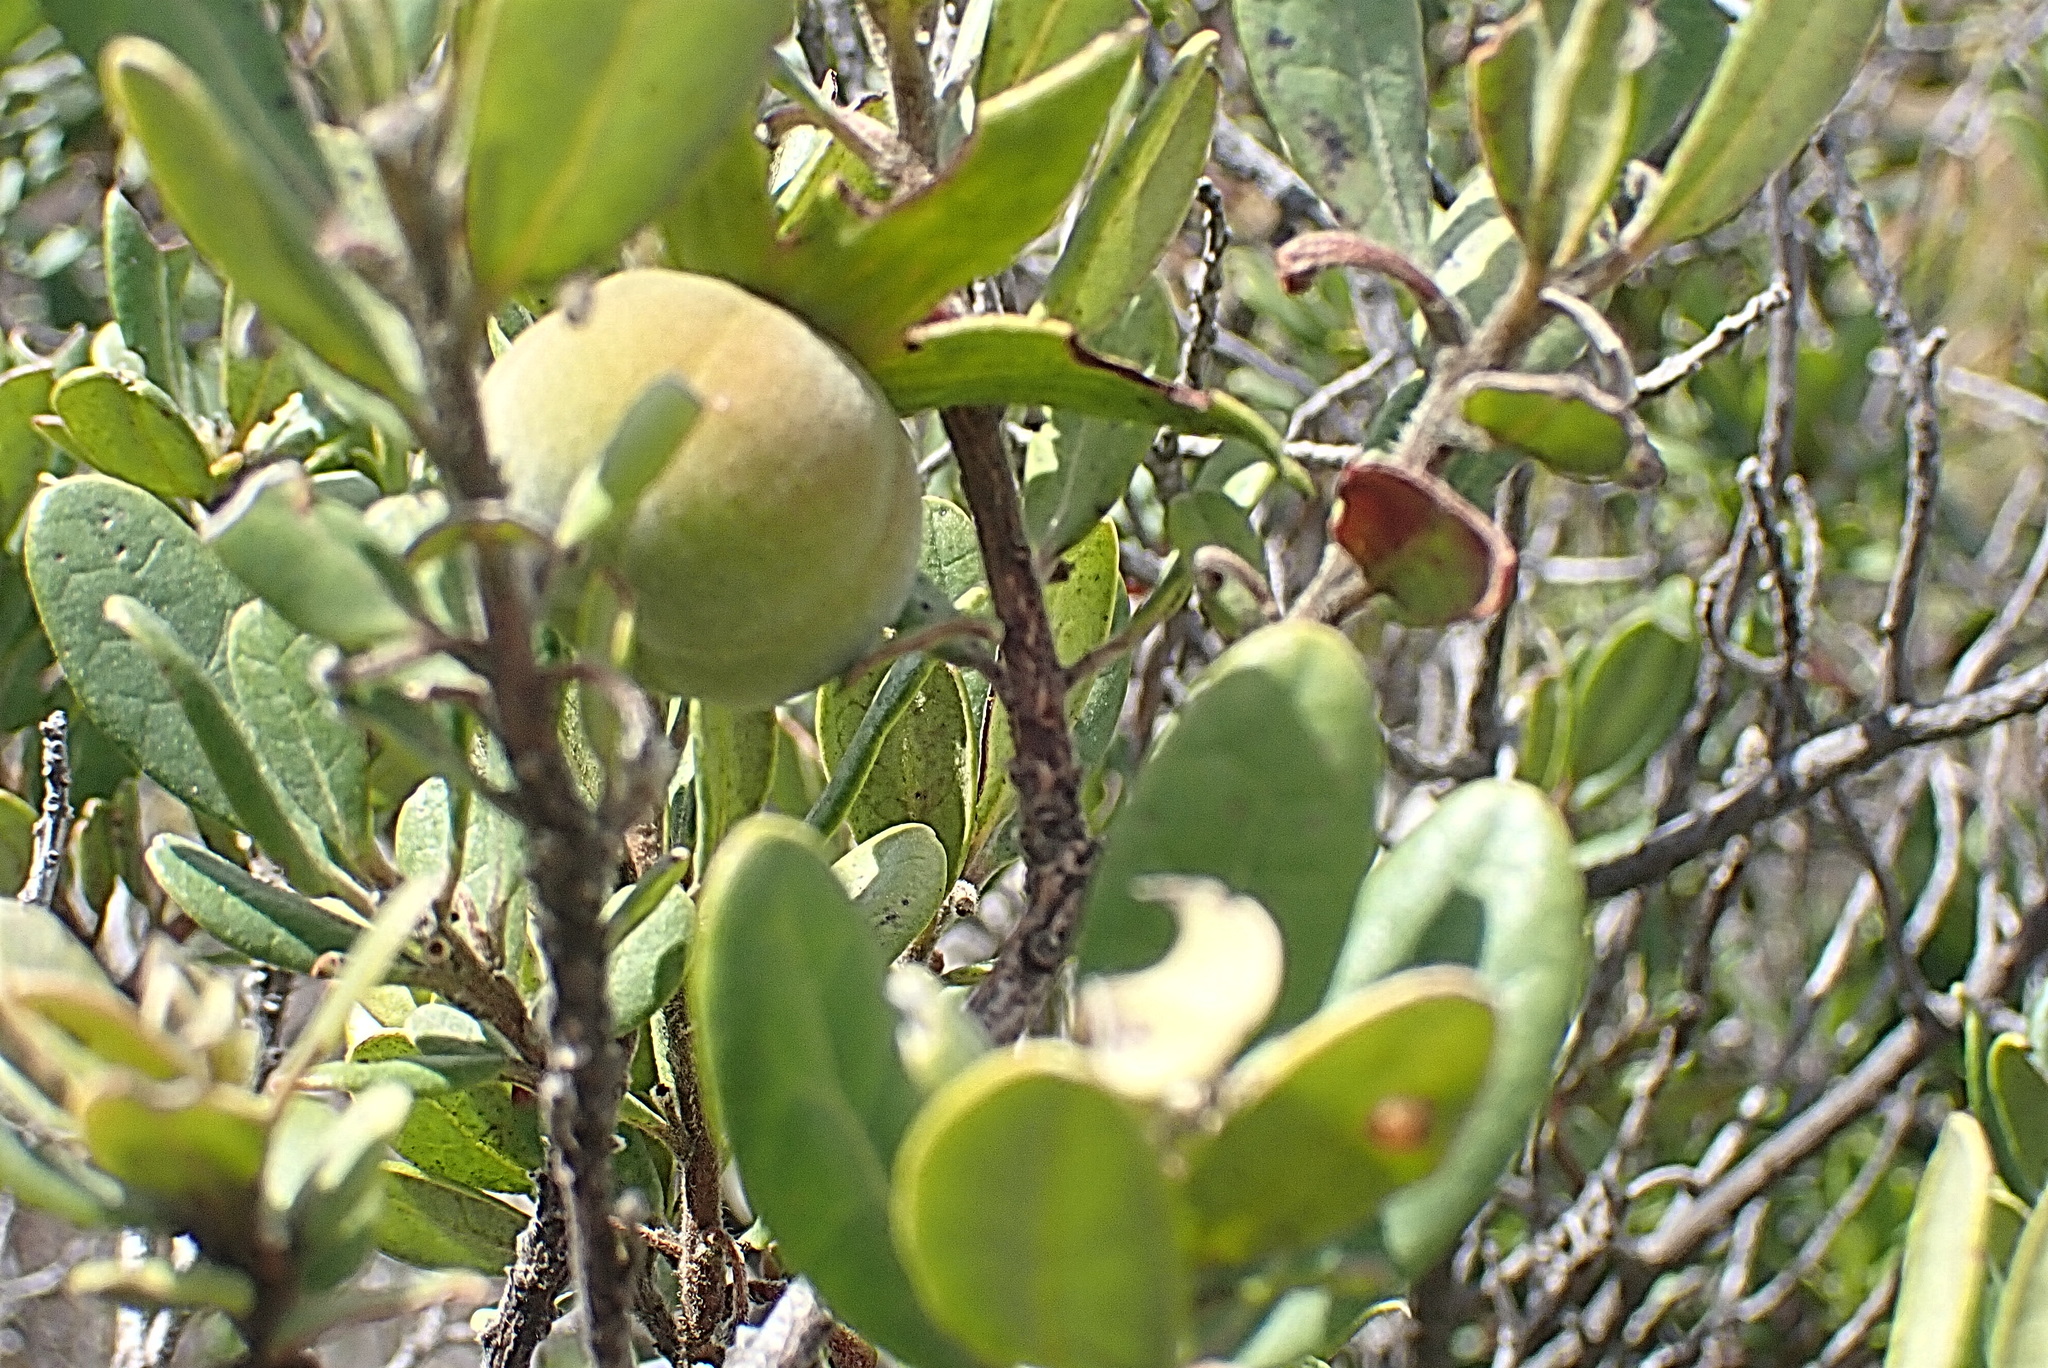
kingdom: Plantae
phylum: Tracheophyta
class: Magnoliopsida
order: Ericales
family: Ebenaceae
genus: Diospyros
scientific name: Diospyros dichrophylla
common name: Common star-apple
